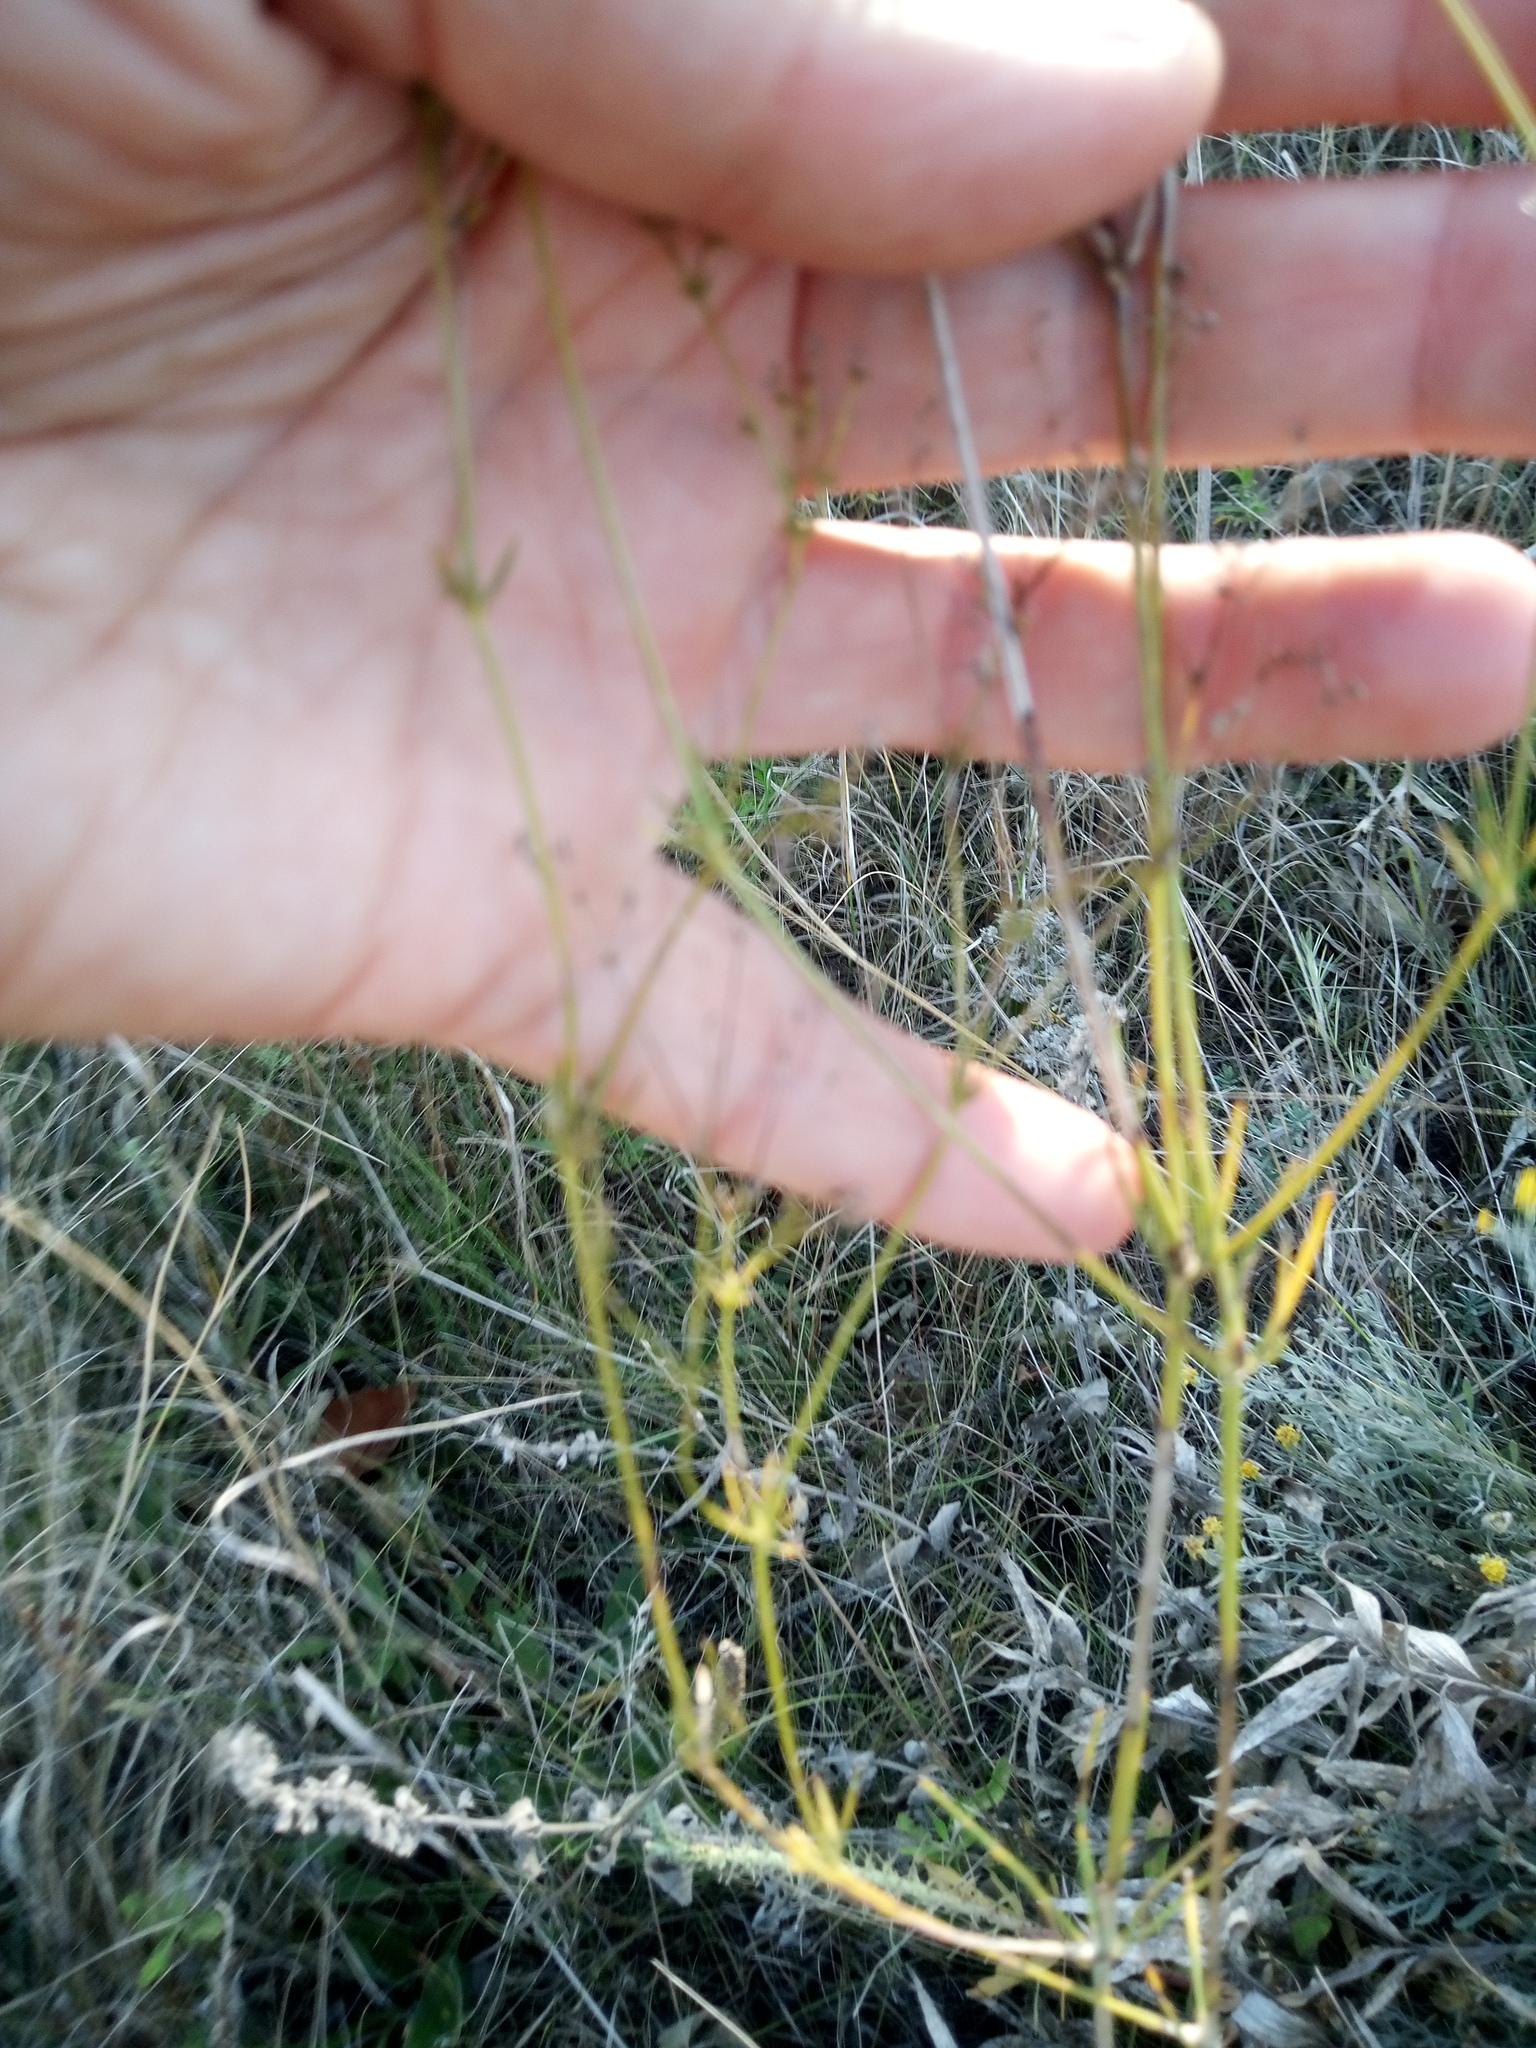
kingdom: Plantae
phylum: Tracheophyta
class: Magnoliopsida
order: Gentianales
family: Rubiaceae
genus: Cynanchica
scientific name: Cynanchica pyrenaica
